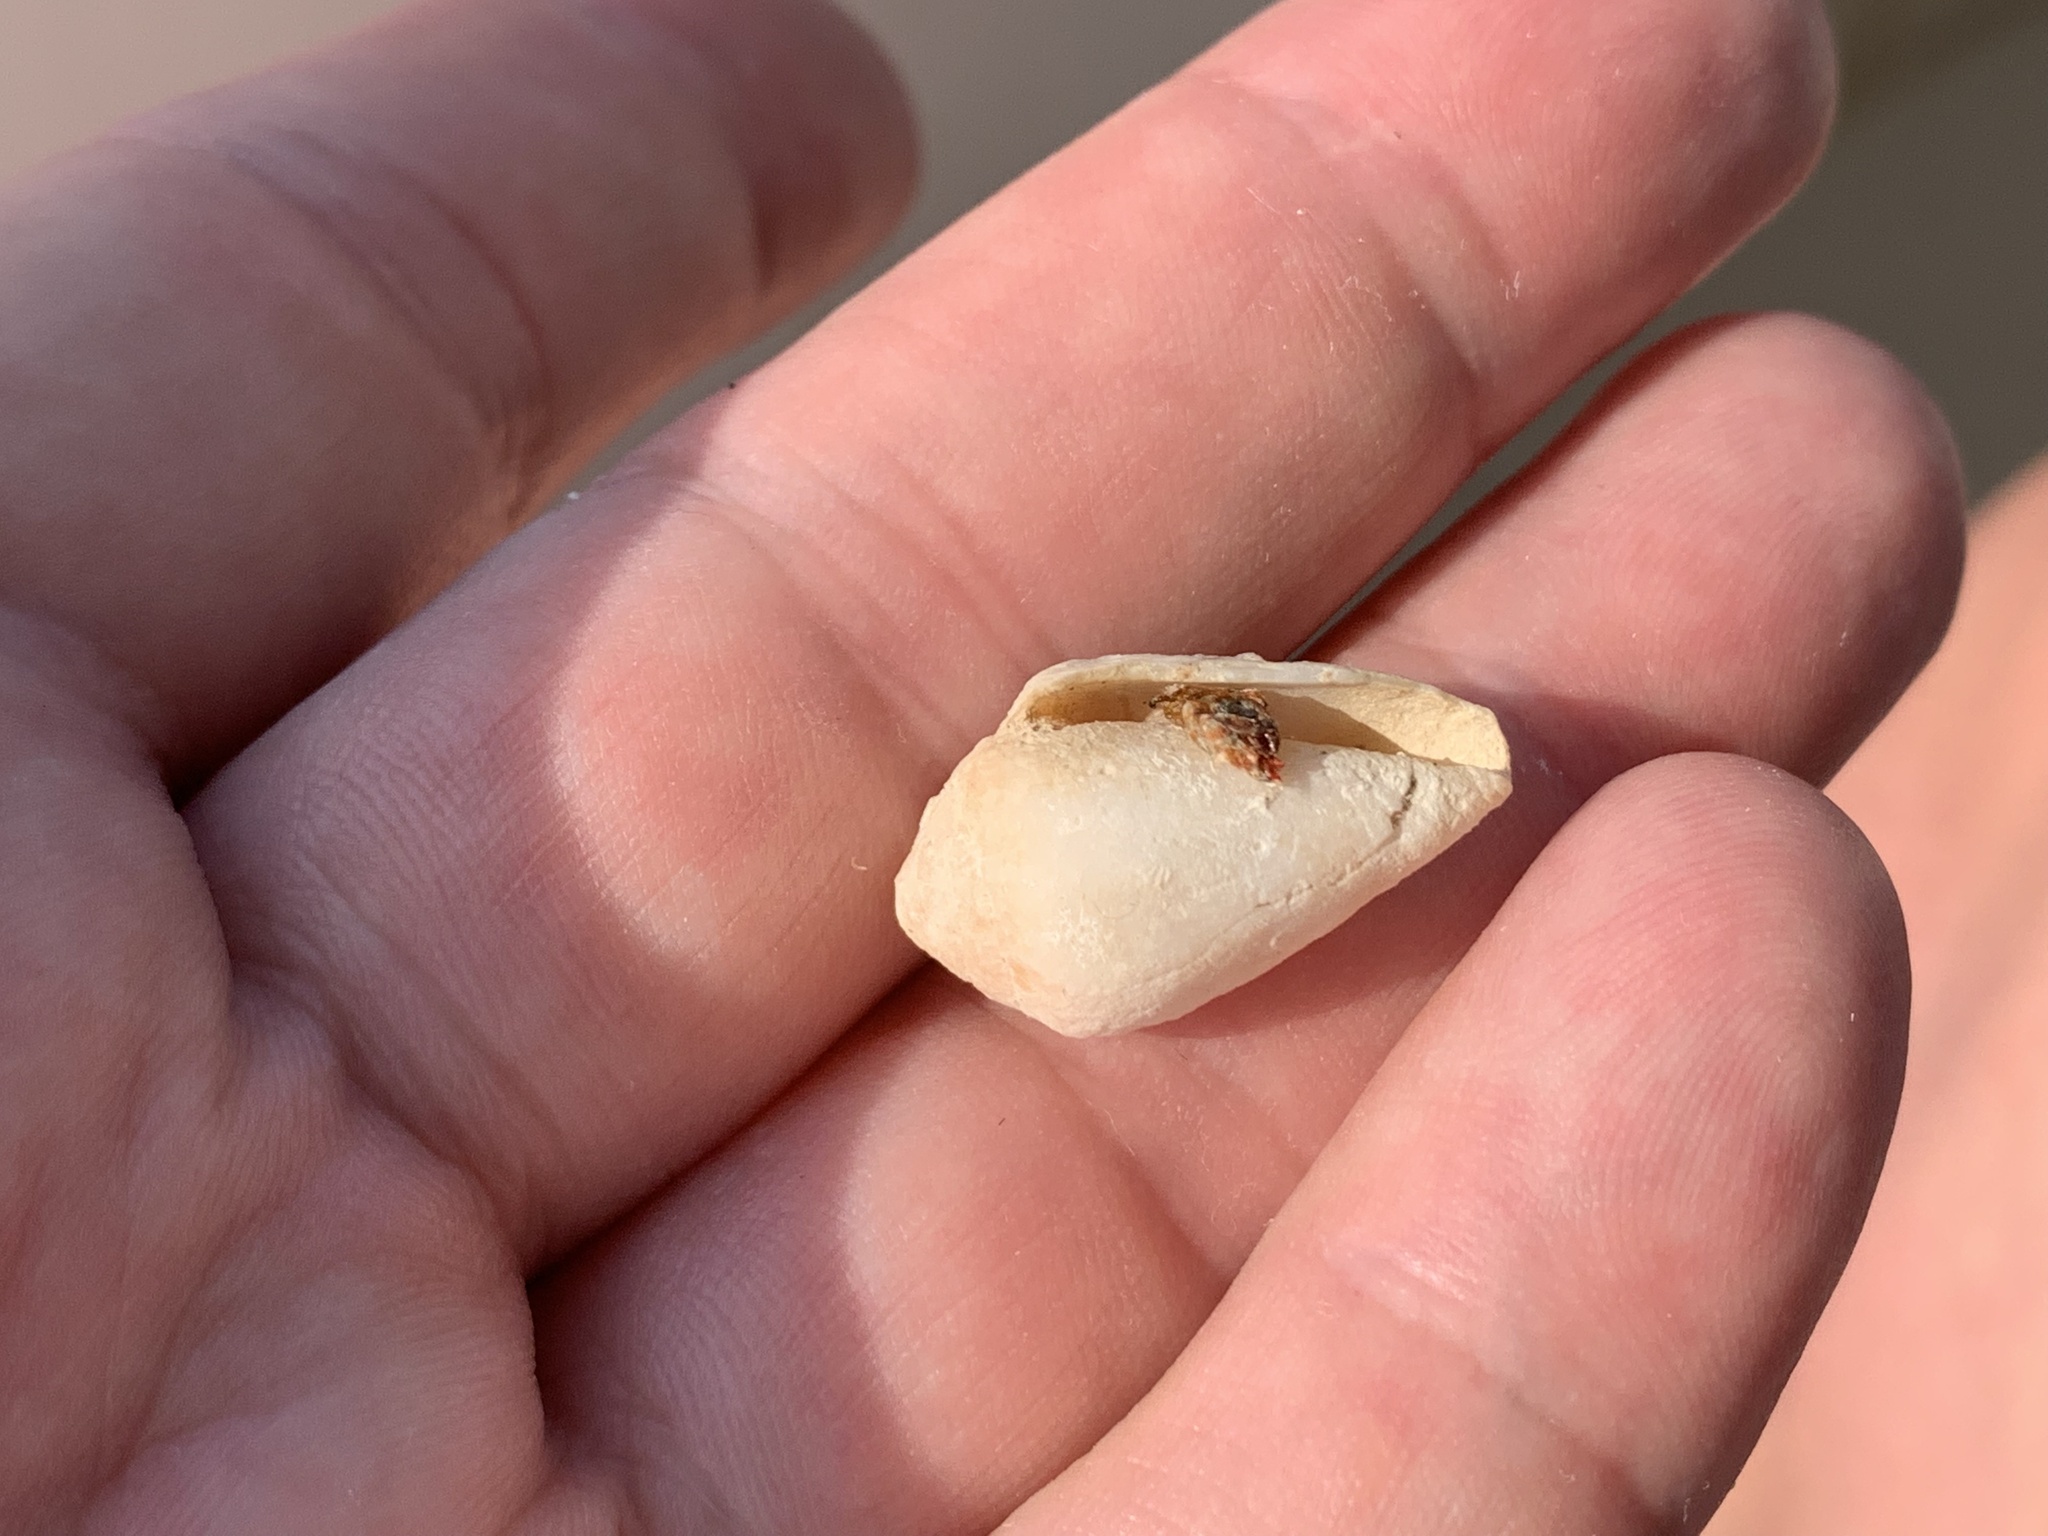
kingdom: Animalia
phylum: Mollusca
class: Gastropoda
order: Neogastropoda
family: Conidae
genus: Conus
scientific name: Conus ventricosus
